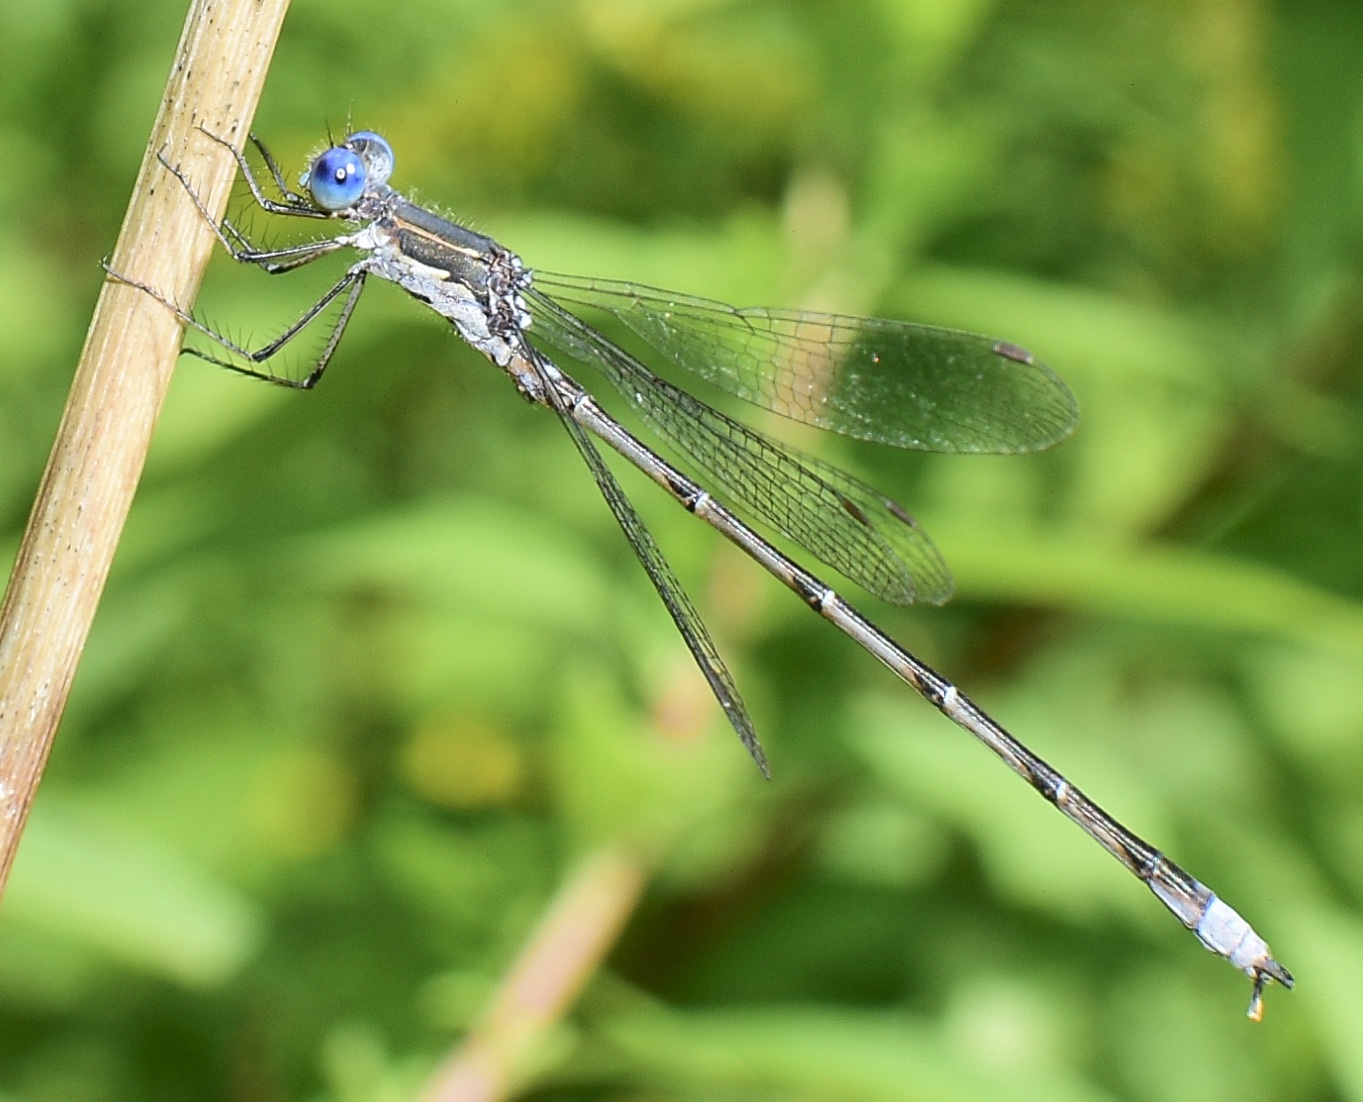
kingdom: Animalia
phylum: Arthropoda
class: Insecta
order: Odonata
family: Lestidae
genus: Lestes
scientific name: Lestes congener
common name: Spotted spreadwing
